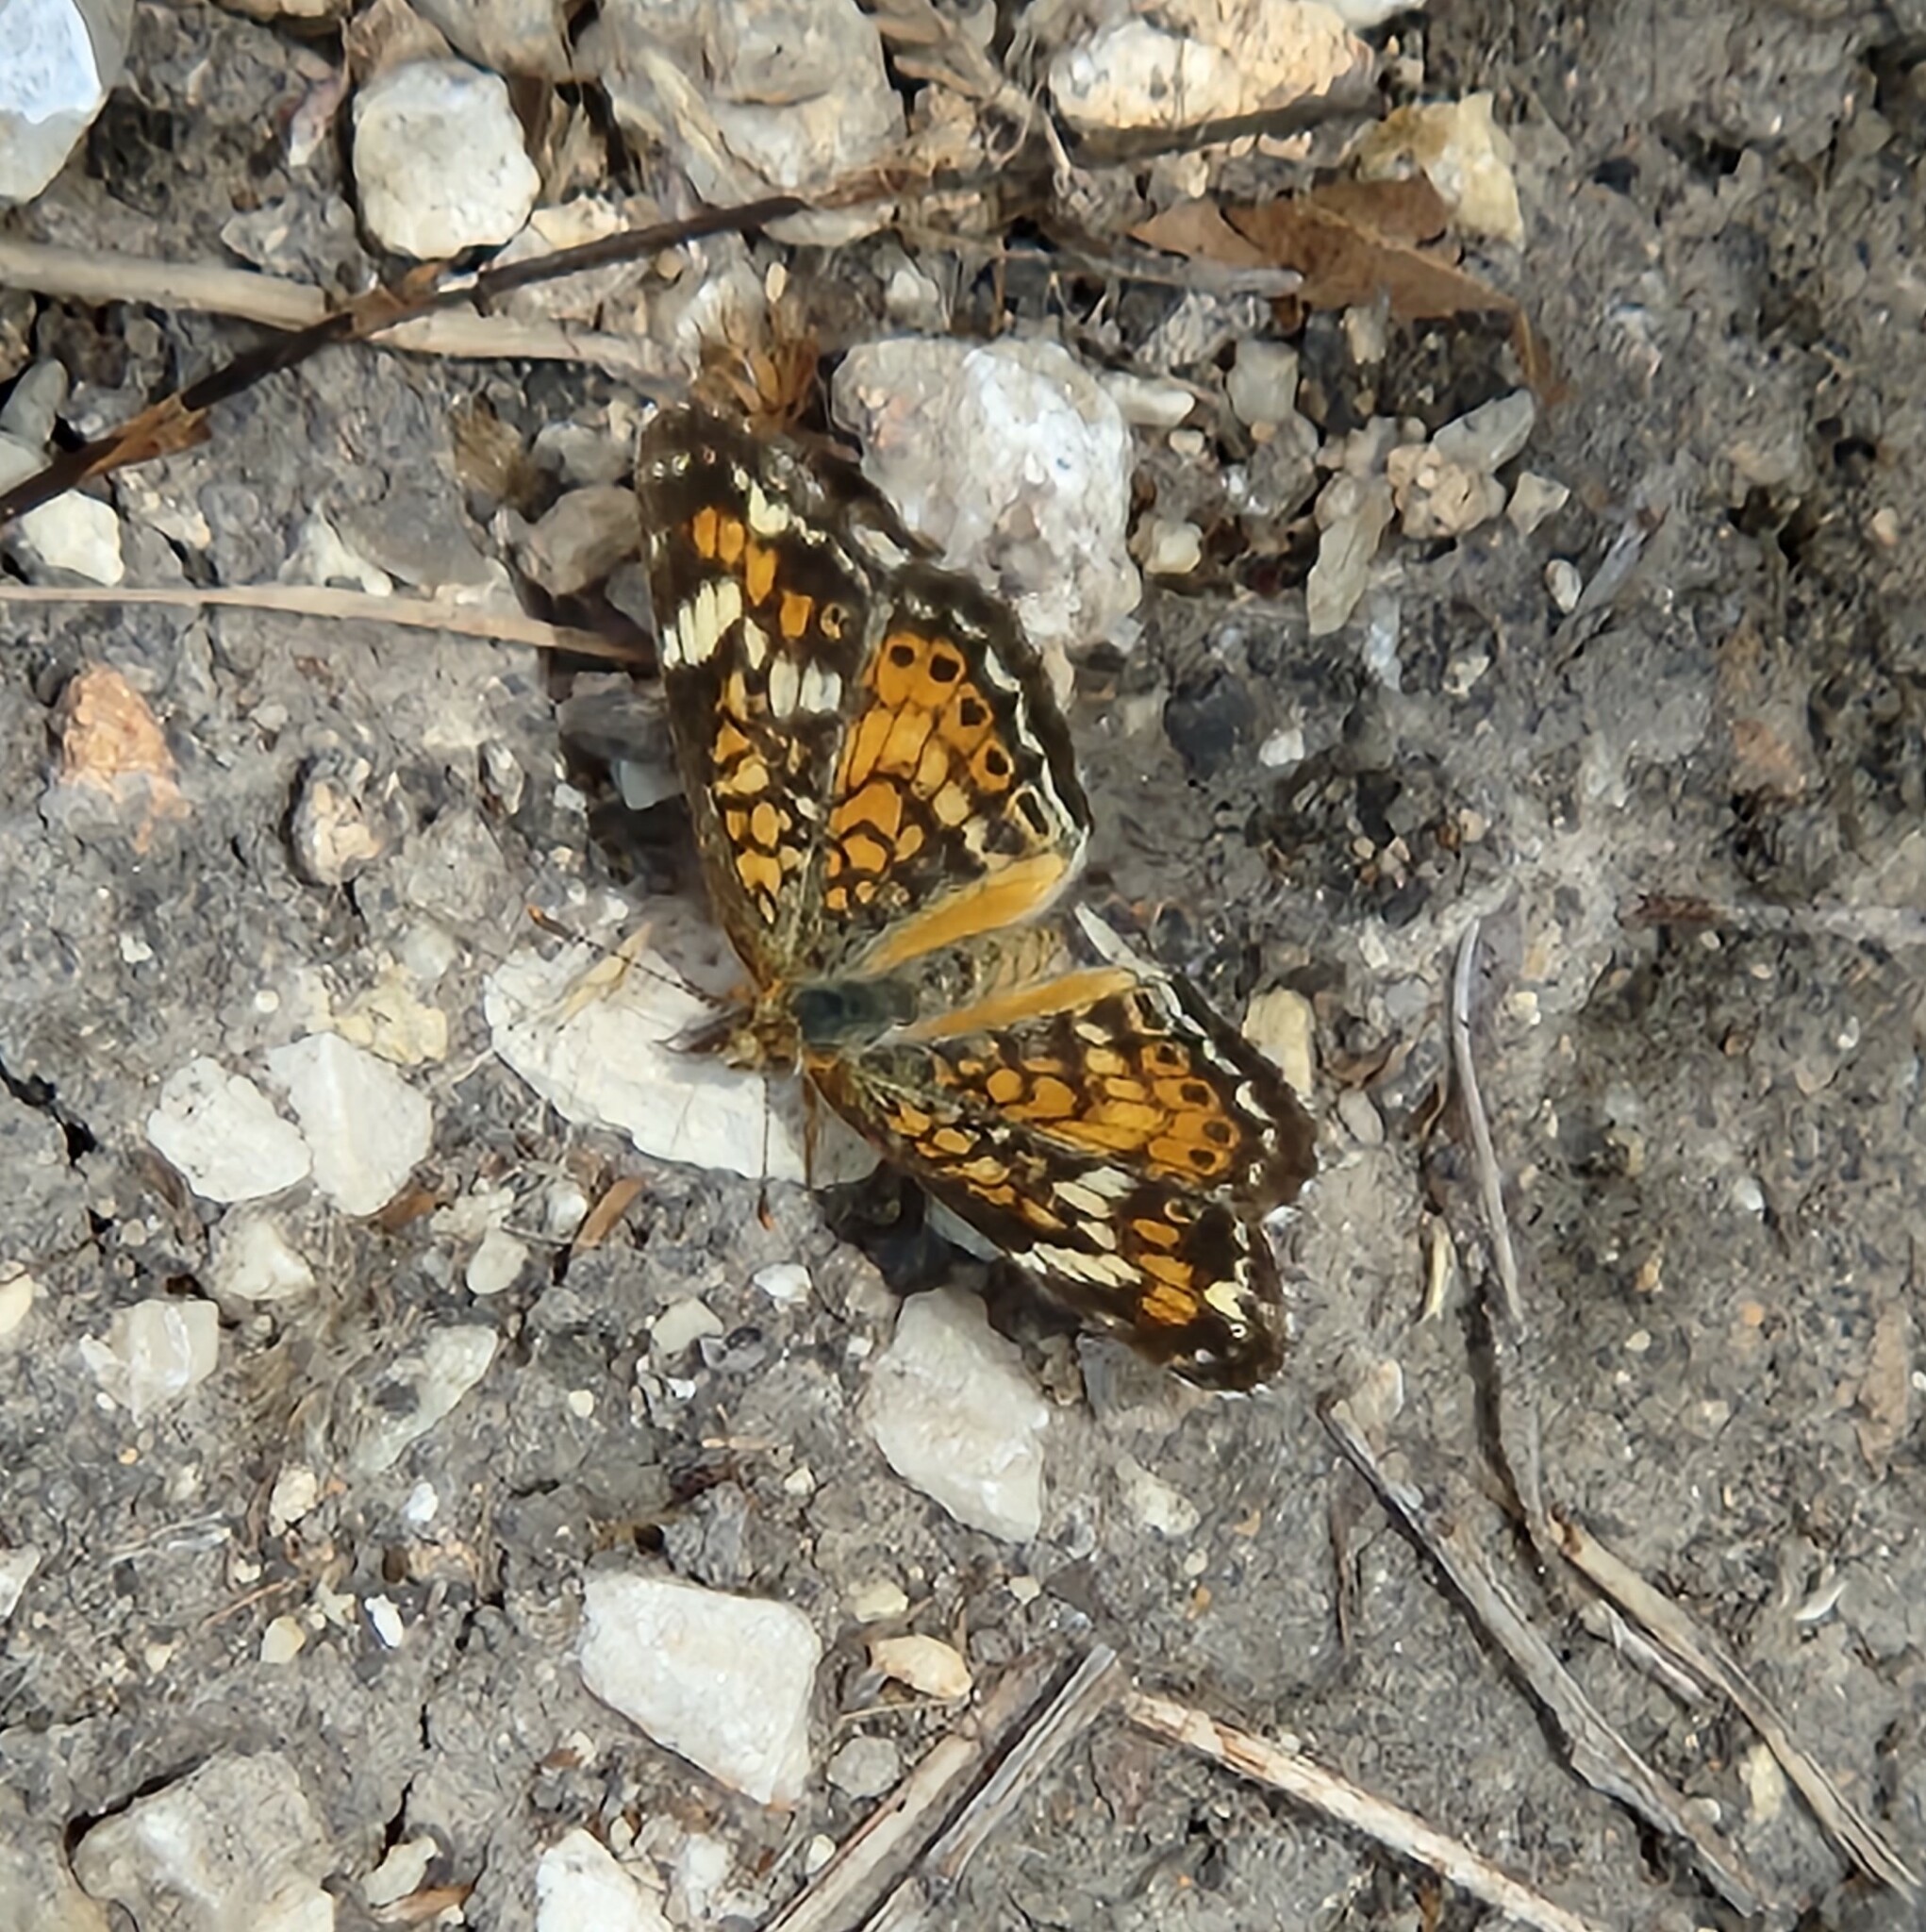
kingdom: Animalia
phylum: Arthropoda
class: Insecta
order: Lepidoptera
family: Nymphalidae
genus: Phyciodes
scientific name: Phyciodes phaon
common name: Phaon crescent
